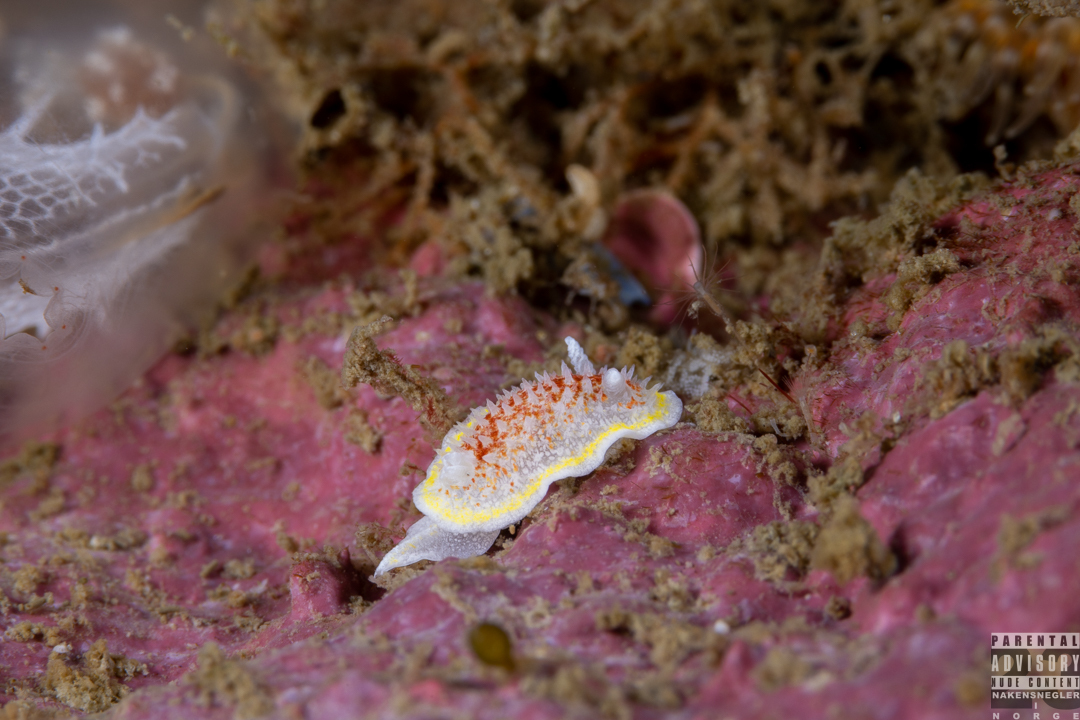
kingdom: Animalia
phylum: Mollusca
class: Gastropoda
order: Nudibranchia
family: Calycidorididae
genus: Diaphorodoris
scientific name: Diaphorodoris luteocincta
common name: Fried egg nudibranch
